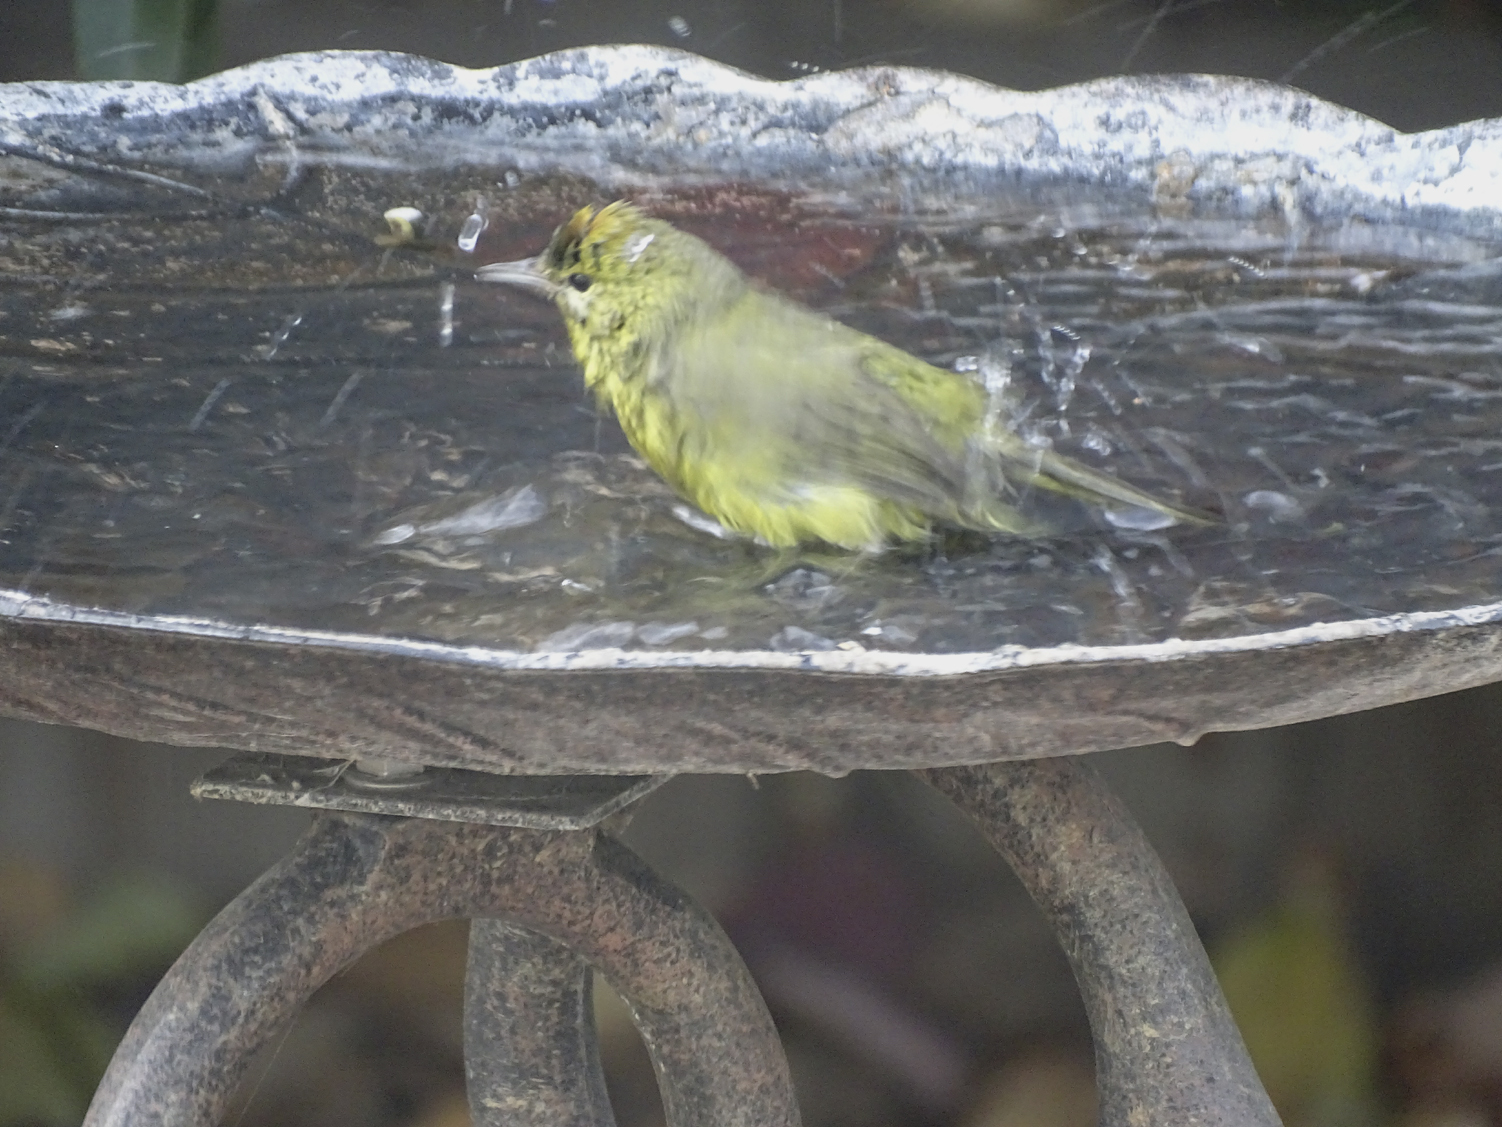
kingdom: Animalia
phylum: Chordata
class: Aves
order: Passeriformes
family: Parulidae
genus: Leiothlypis
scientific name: Leiothlypis celata
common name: Orange-crowned warbler
